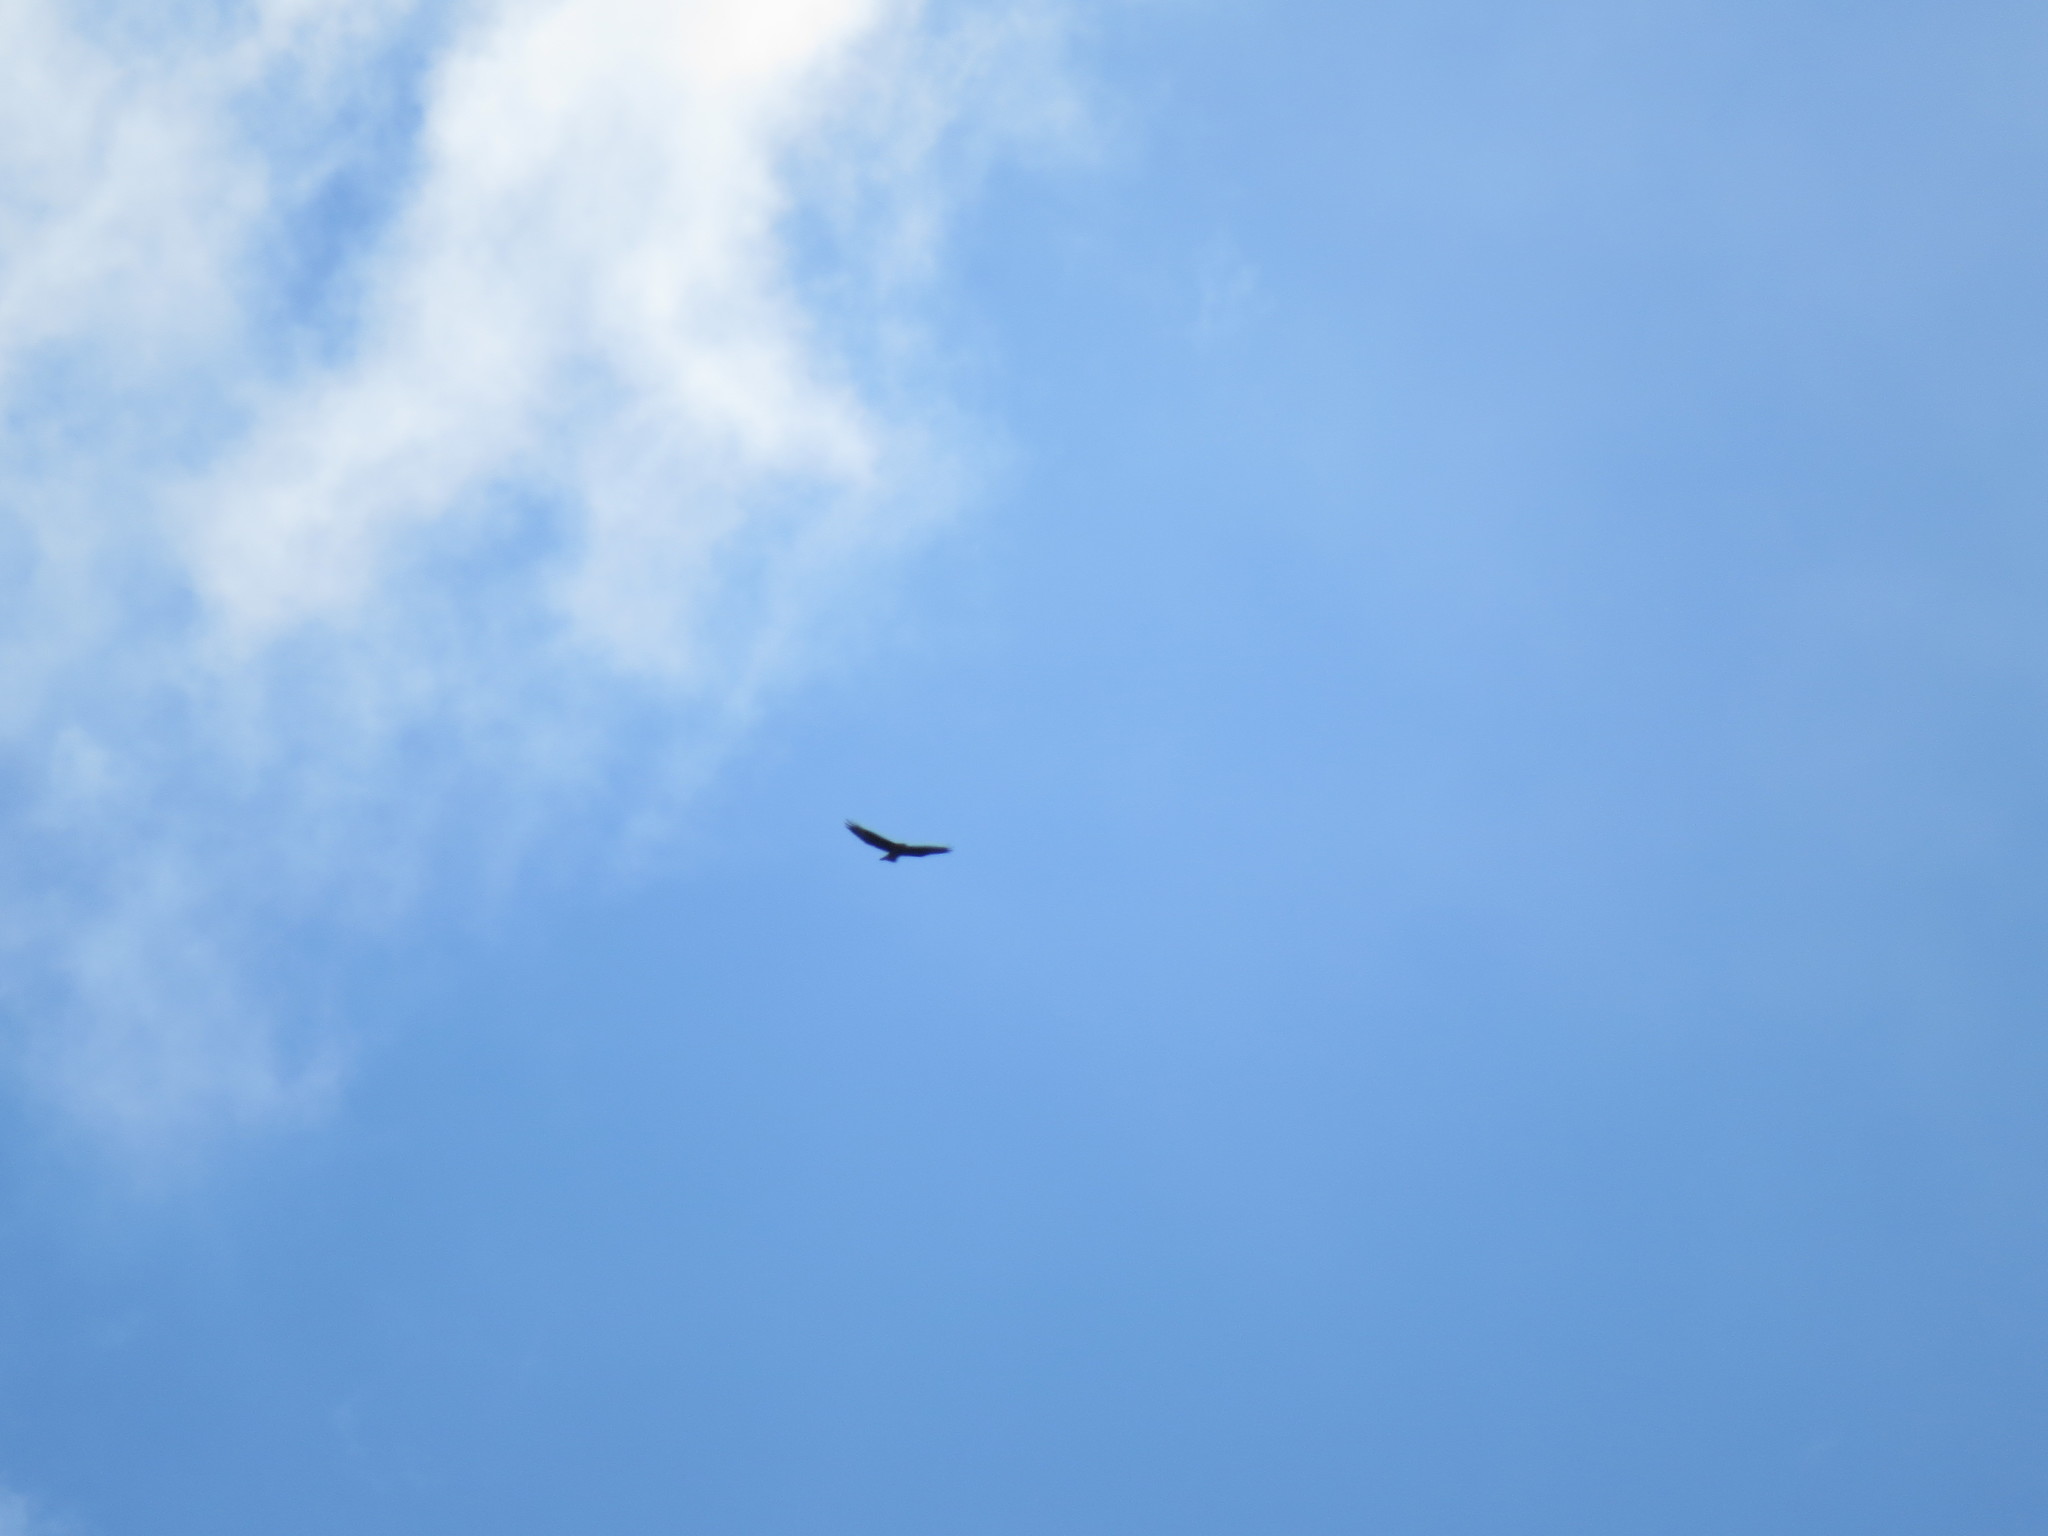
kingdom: Animalia
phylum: Chordata
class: Aves
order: Accipitriformes
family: Accipitridae
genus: Buteo
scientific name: Buteo buteo
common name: Common buzzard
